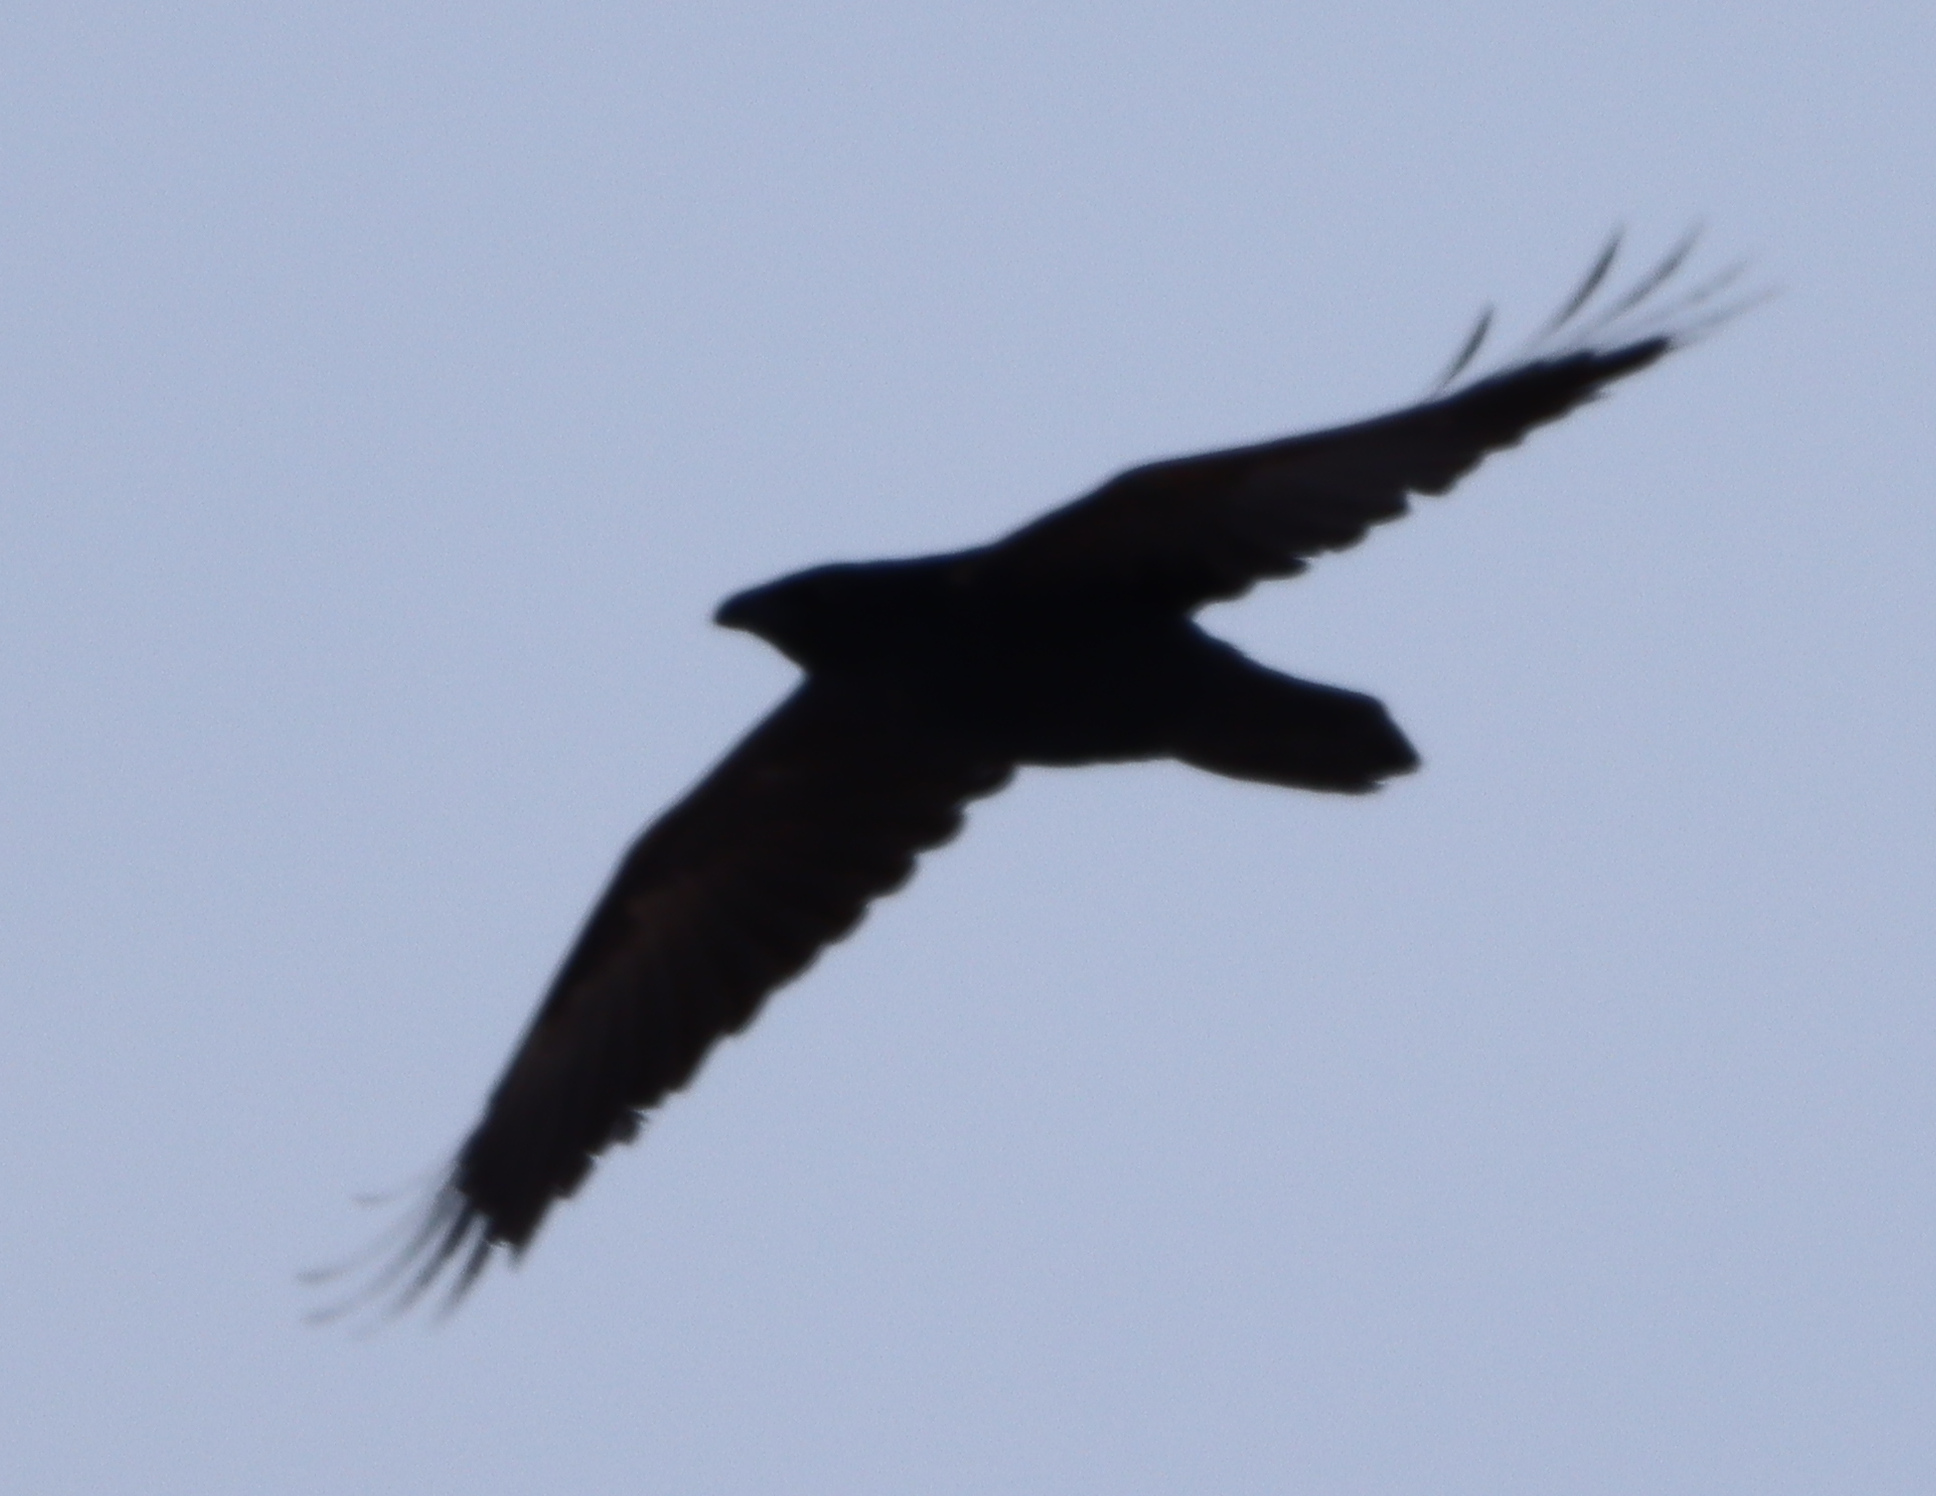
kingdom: Animalia
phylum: Chordata
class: Aves
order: Passeriformes
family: Corvidae
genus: Corvus
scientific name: Corvus corax
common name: Common raven
